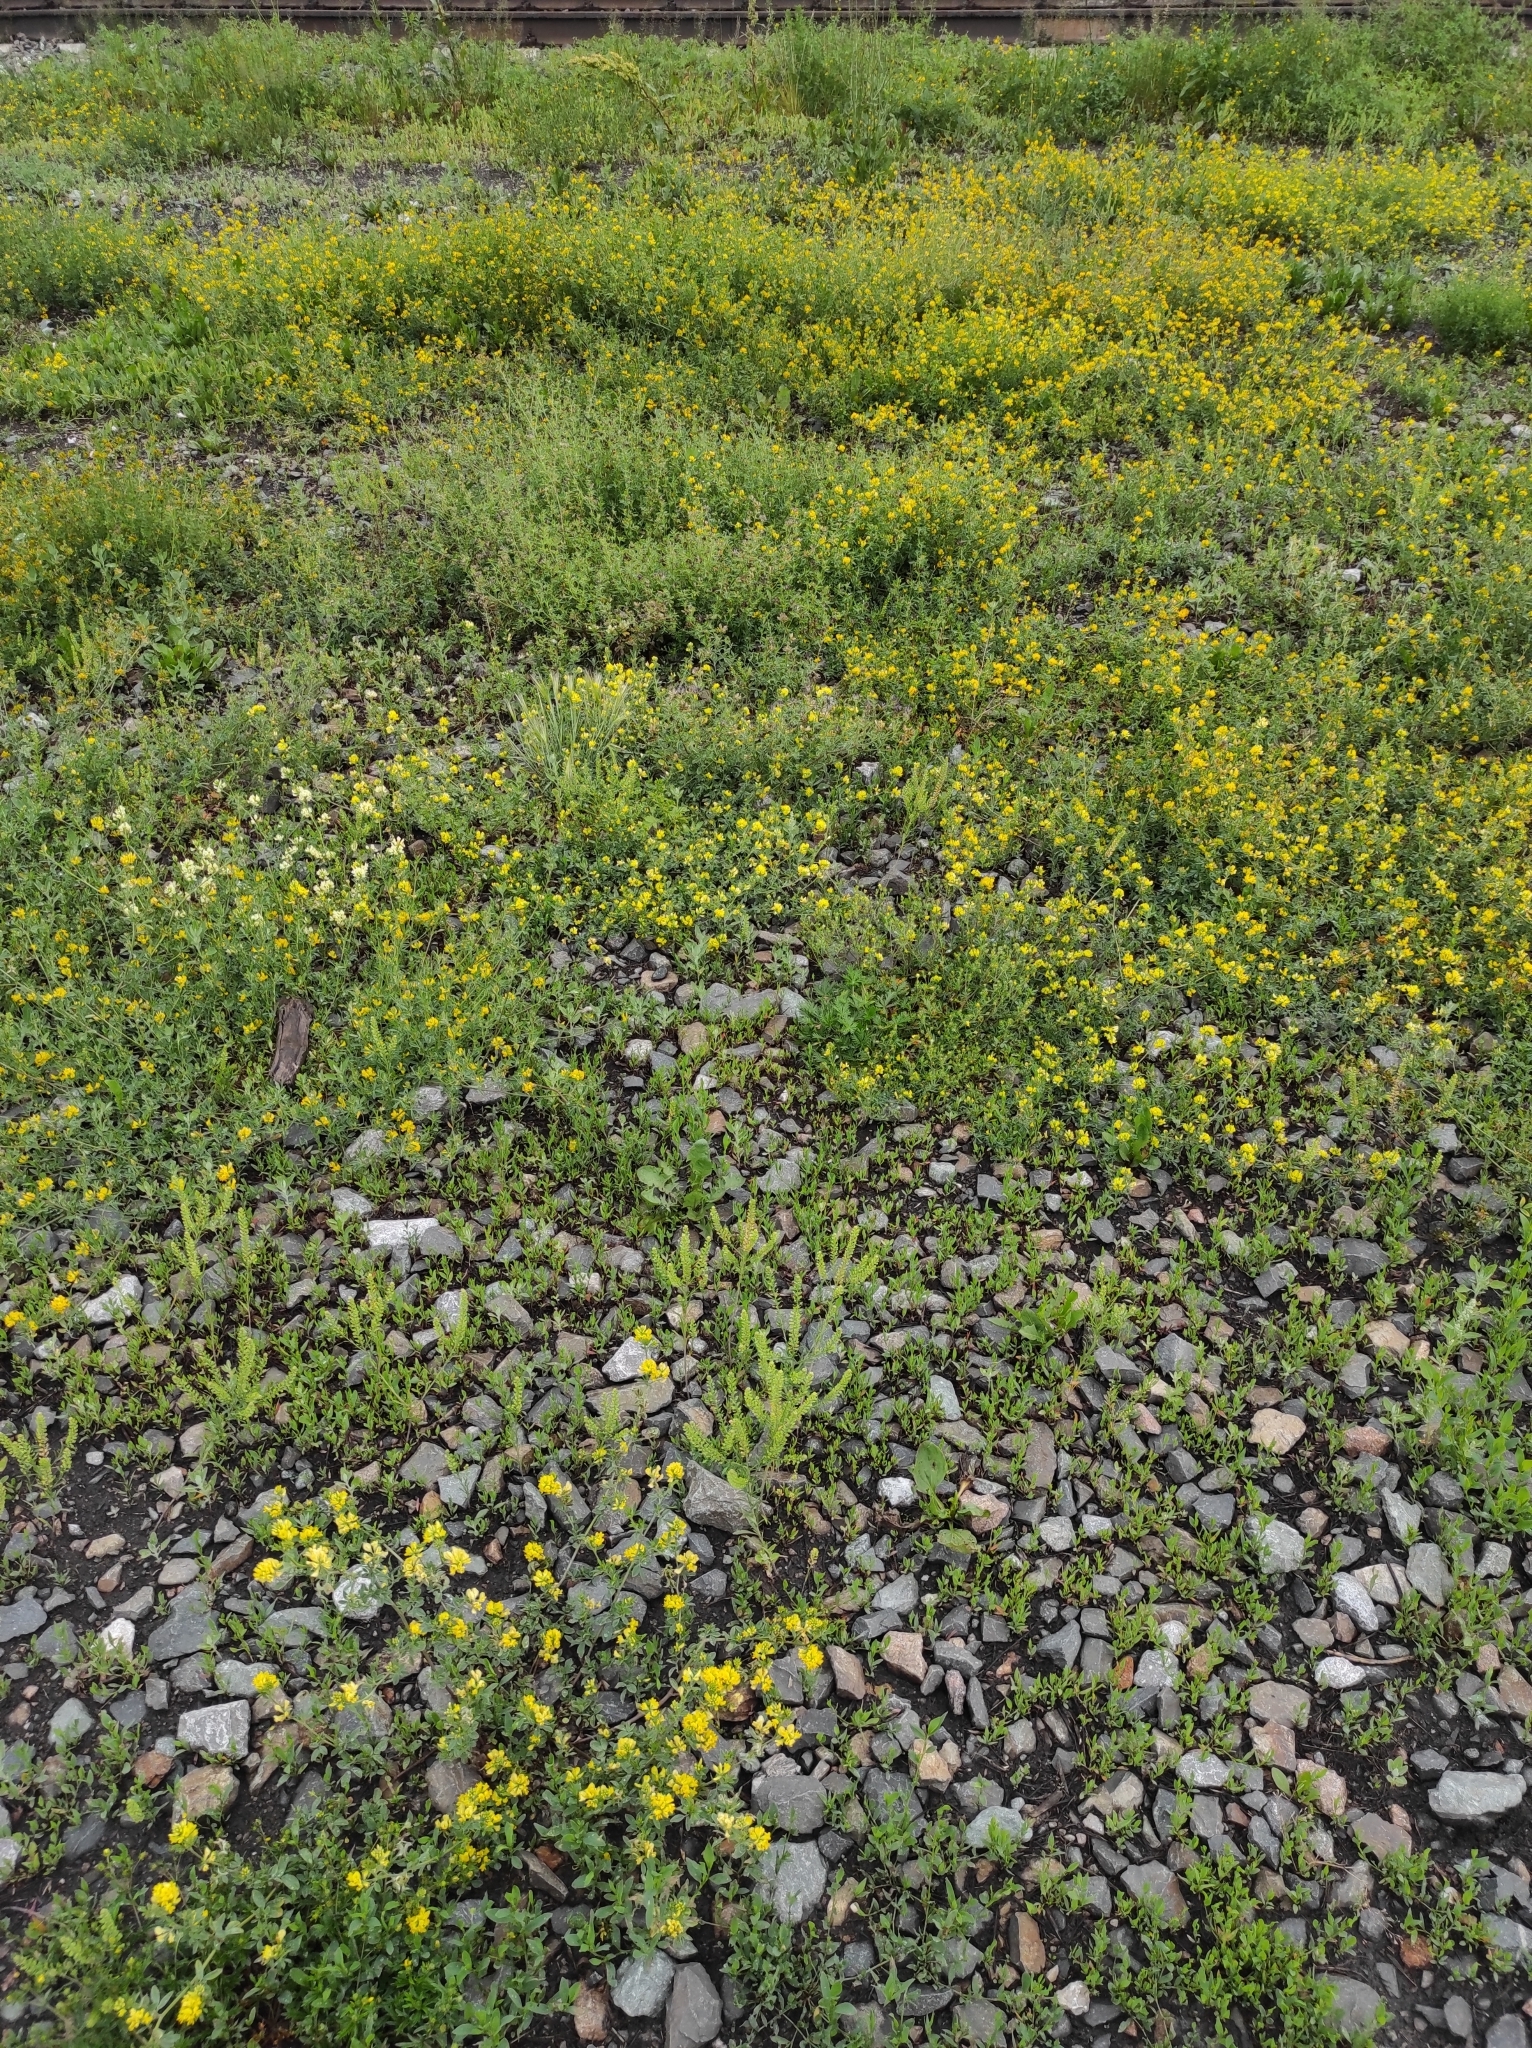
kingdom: Plantae
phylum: Tracheophyta
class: Magnoliopsida
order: Brassicales
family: Brassicaceae
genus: Berteroa
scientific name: Berteroa incana
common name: Hoary alison
